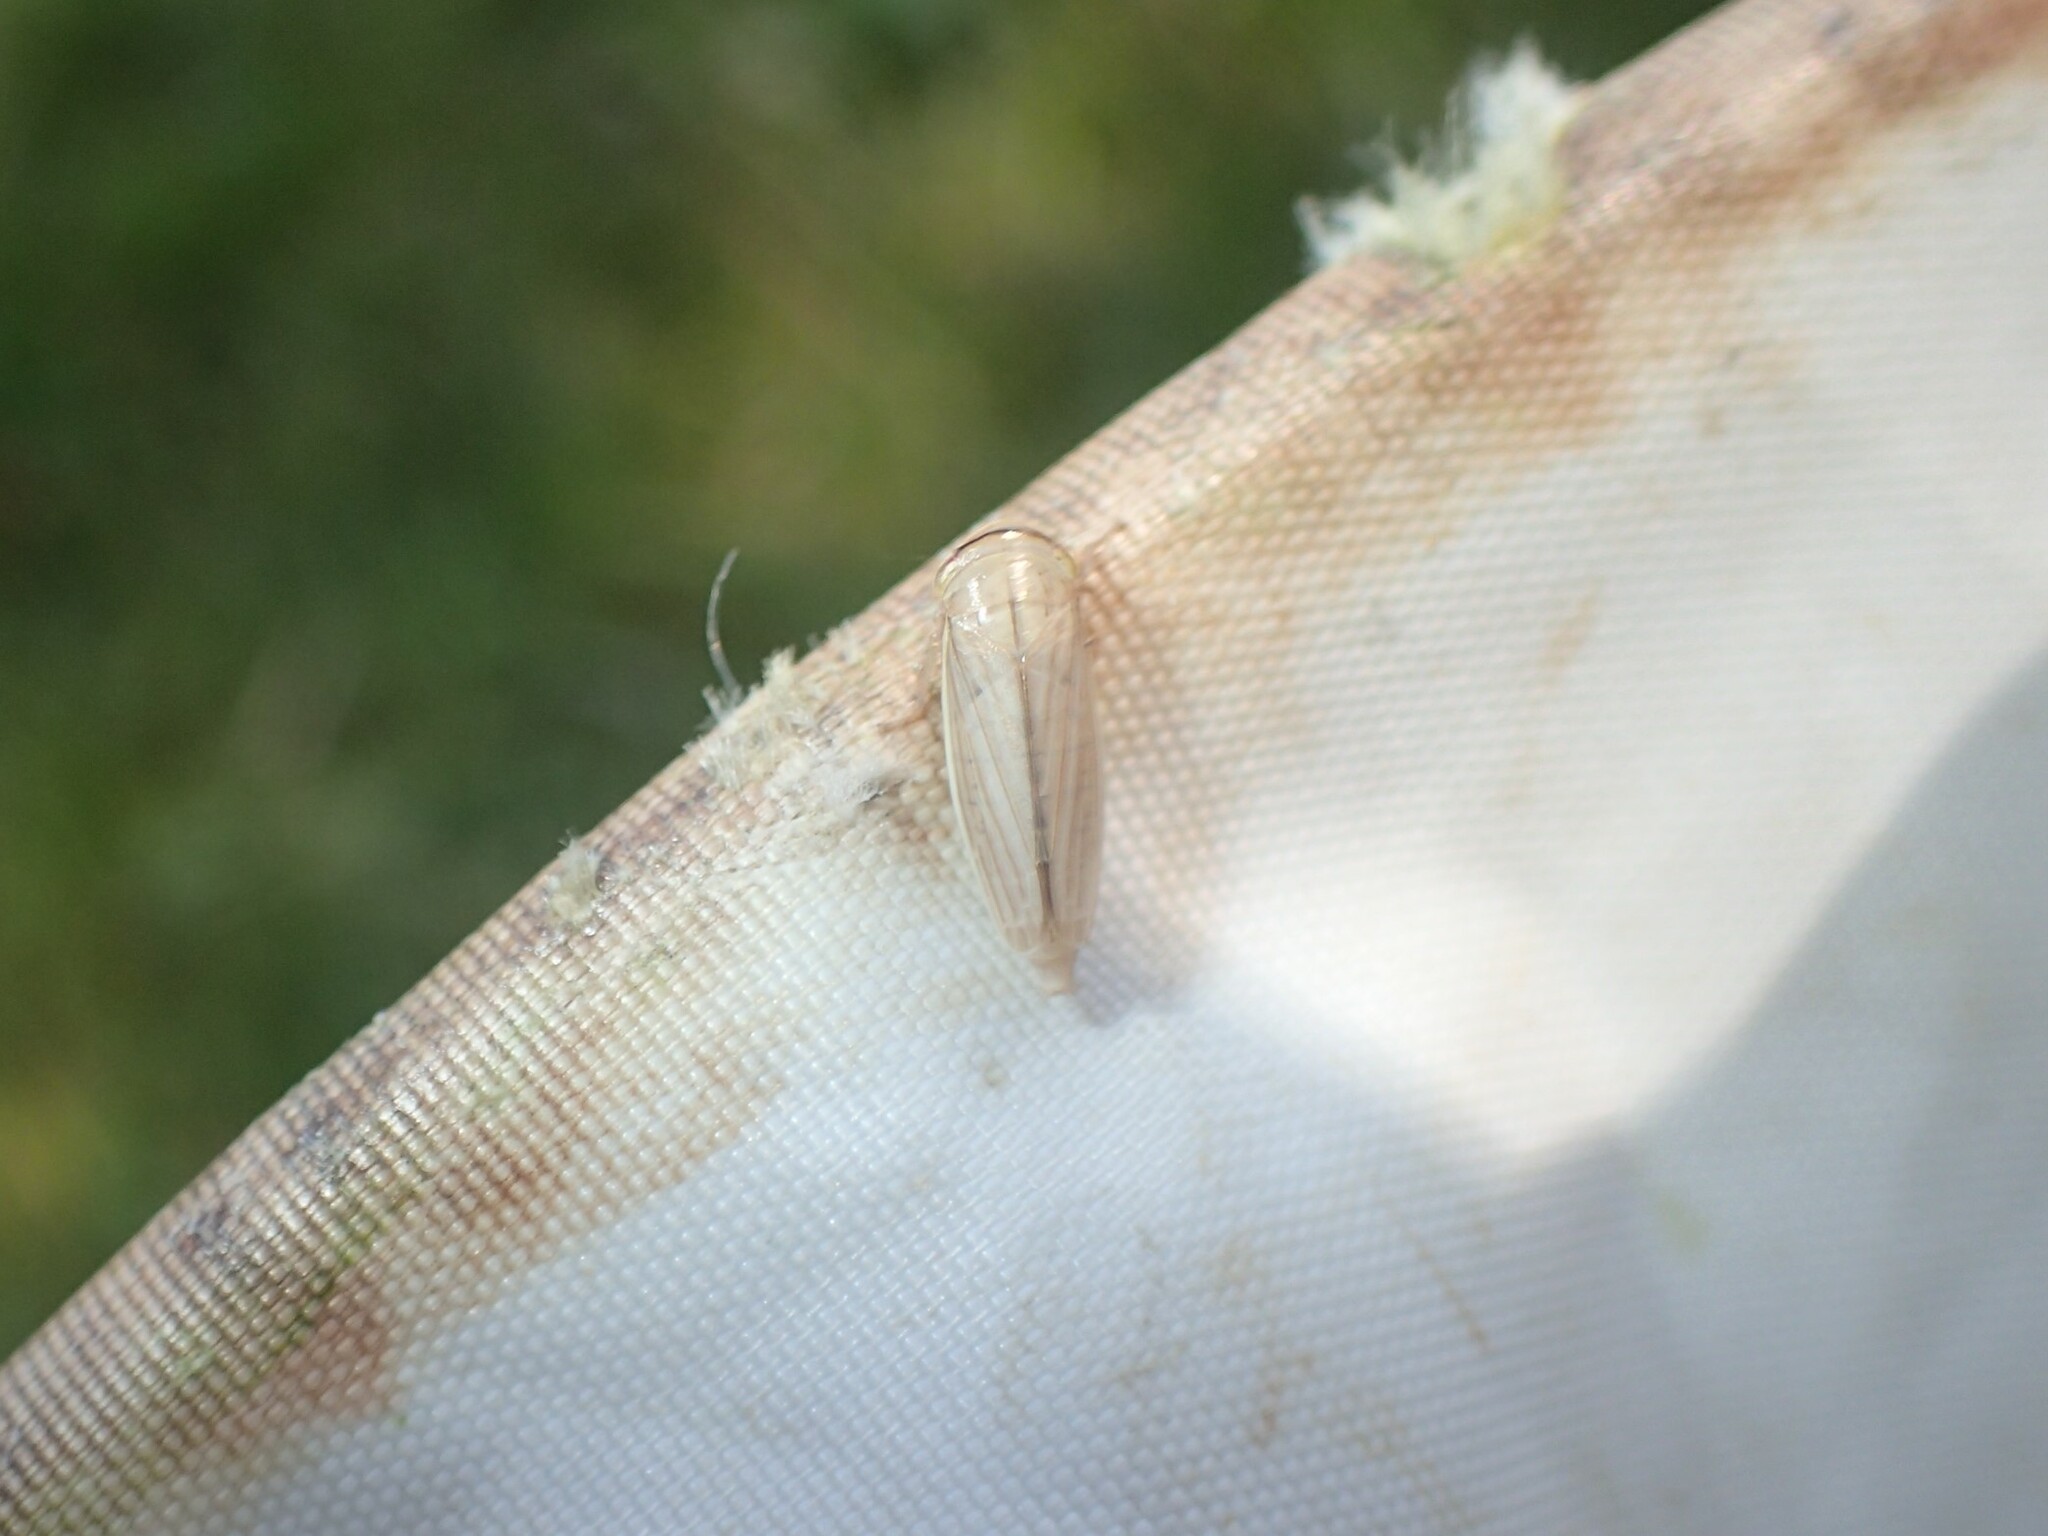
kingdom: Animalia
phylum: Arthropoda
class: Insecta
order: Hemiptera
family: Cicadellidae
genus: Athysanus
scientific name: Athysanus argentarius
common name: Silver leafhopper
